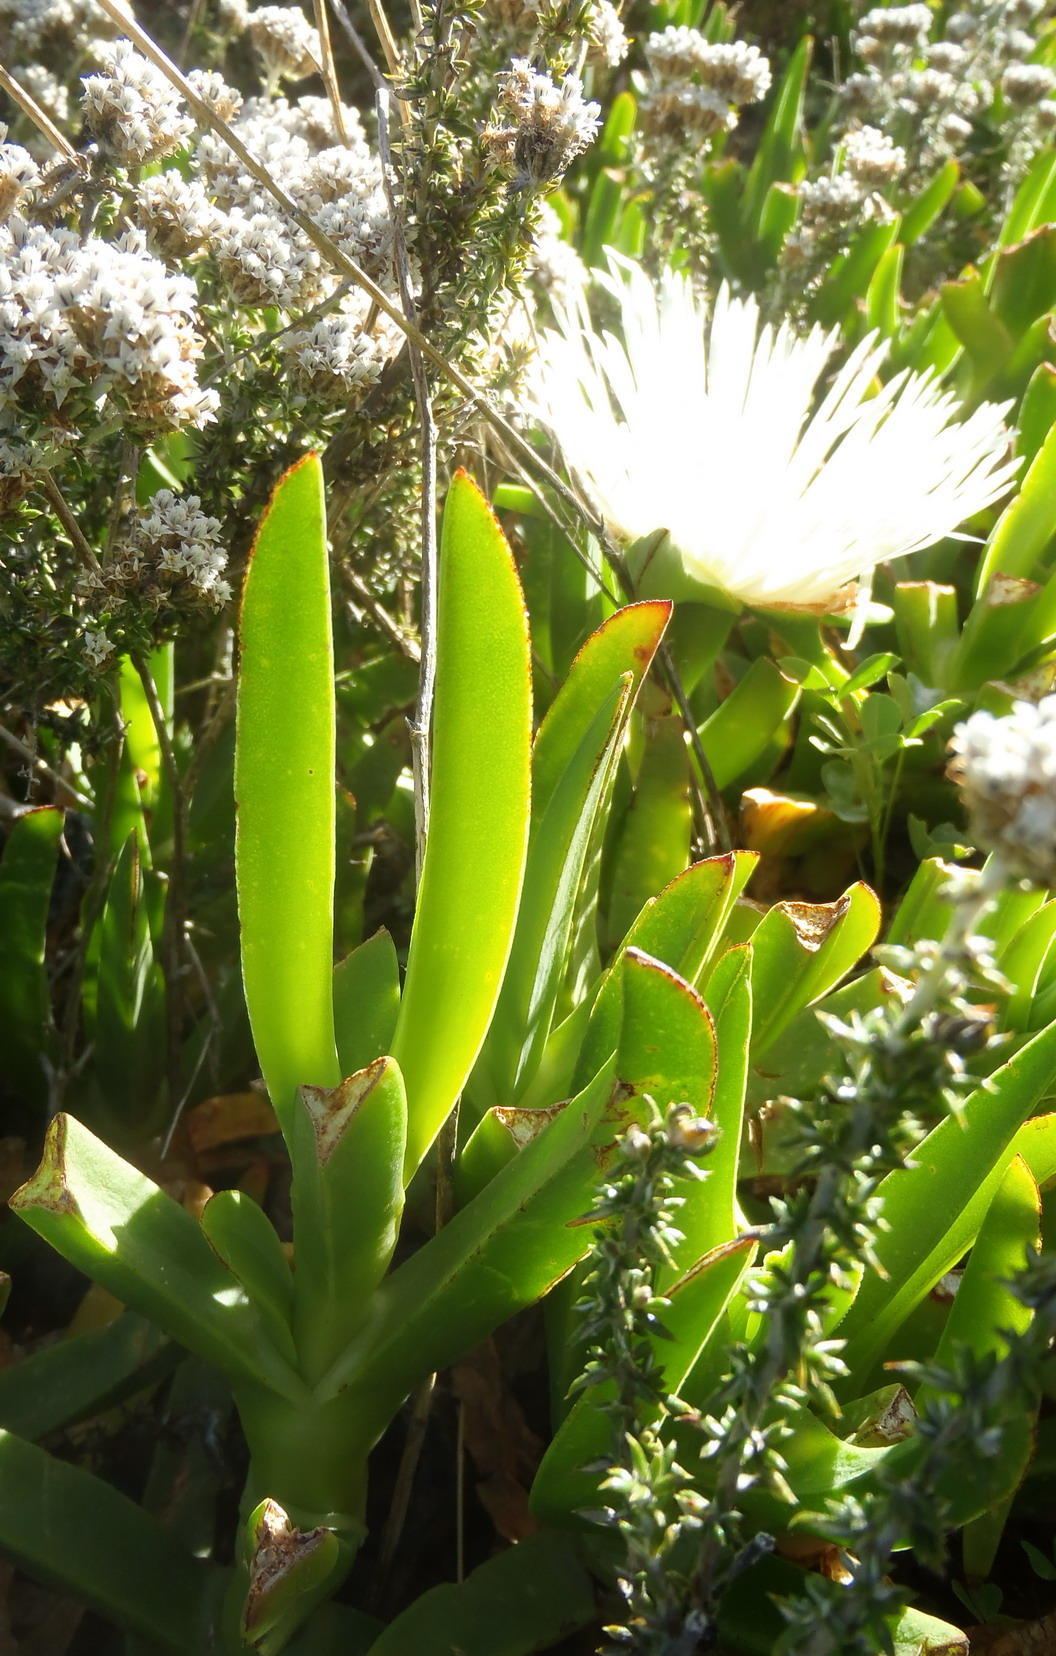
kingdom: Plantae
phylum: Tracheophyta
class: Magnoliopsida
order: Caryophyllales
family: Aizoaceae
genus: Carpobrotus
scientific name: Carpobrotus edulis
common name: Hottentot-fig
